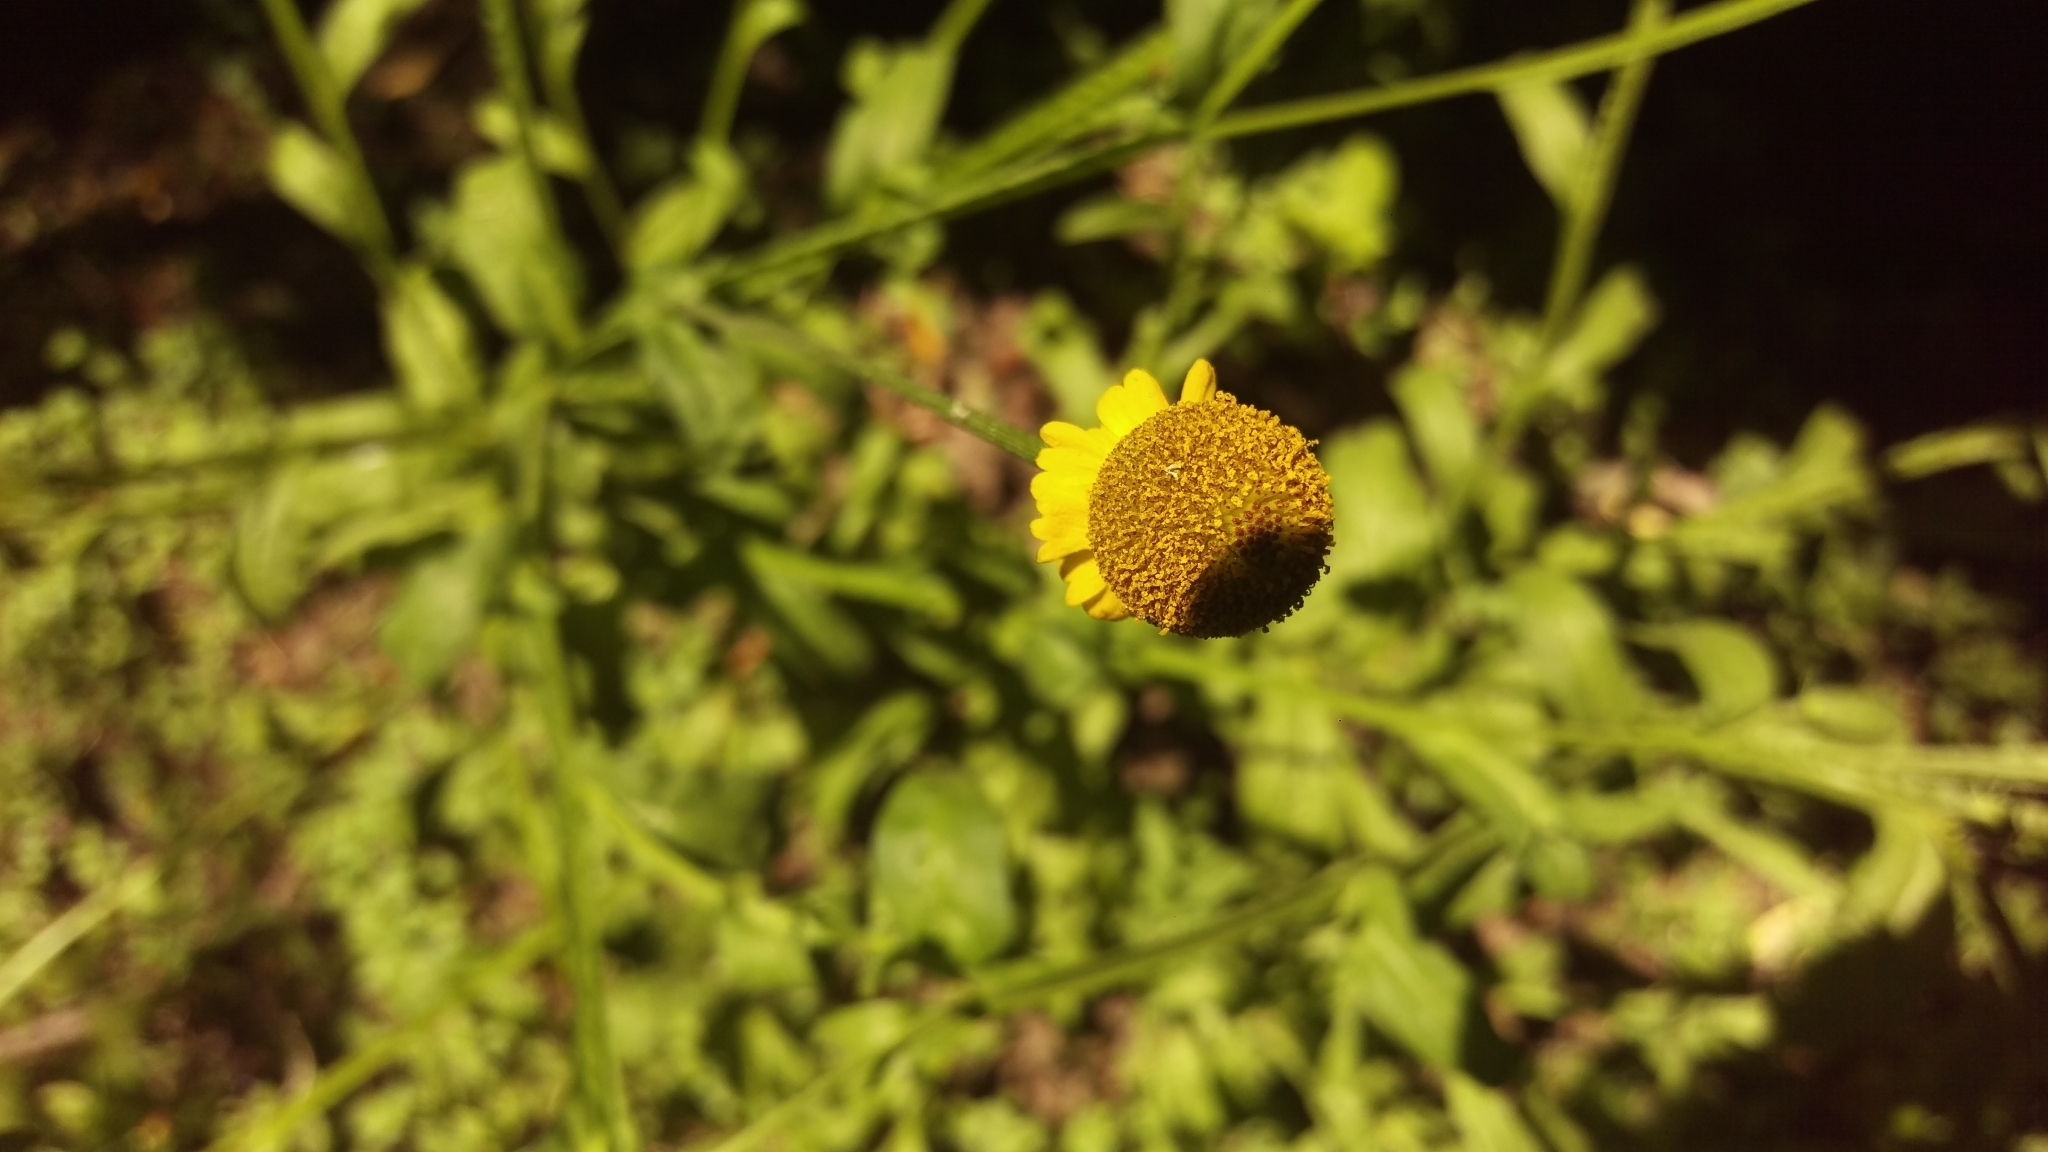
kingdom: Plantae
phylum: Tracheophyta
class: Magnoliopsida
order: Asterales
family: Asteraceae
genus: Helenium
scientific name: Helenium puberulum
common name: Sneezewort
